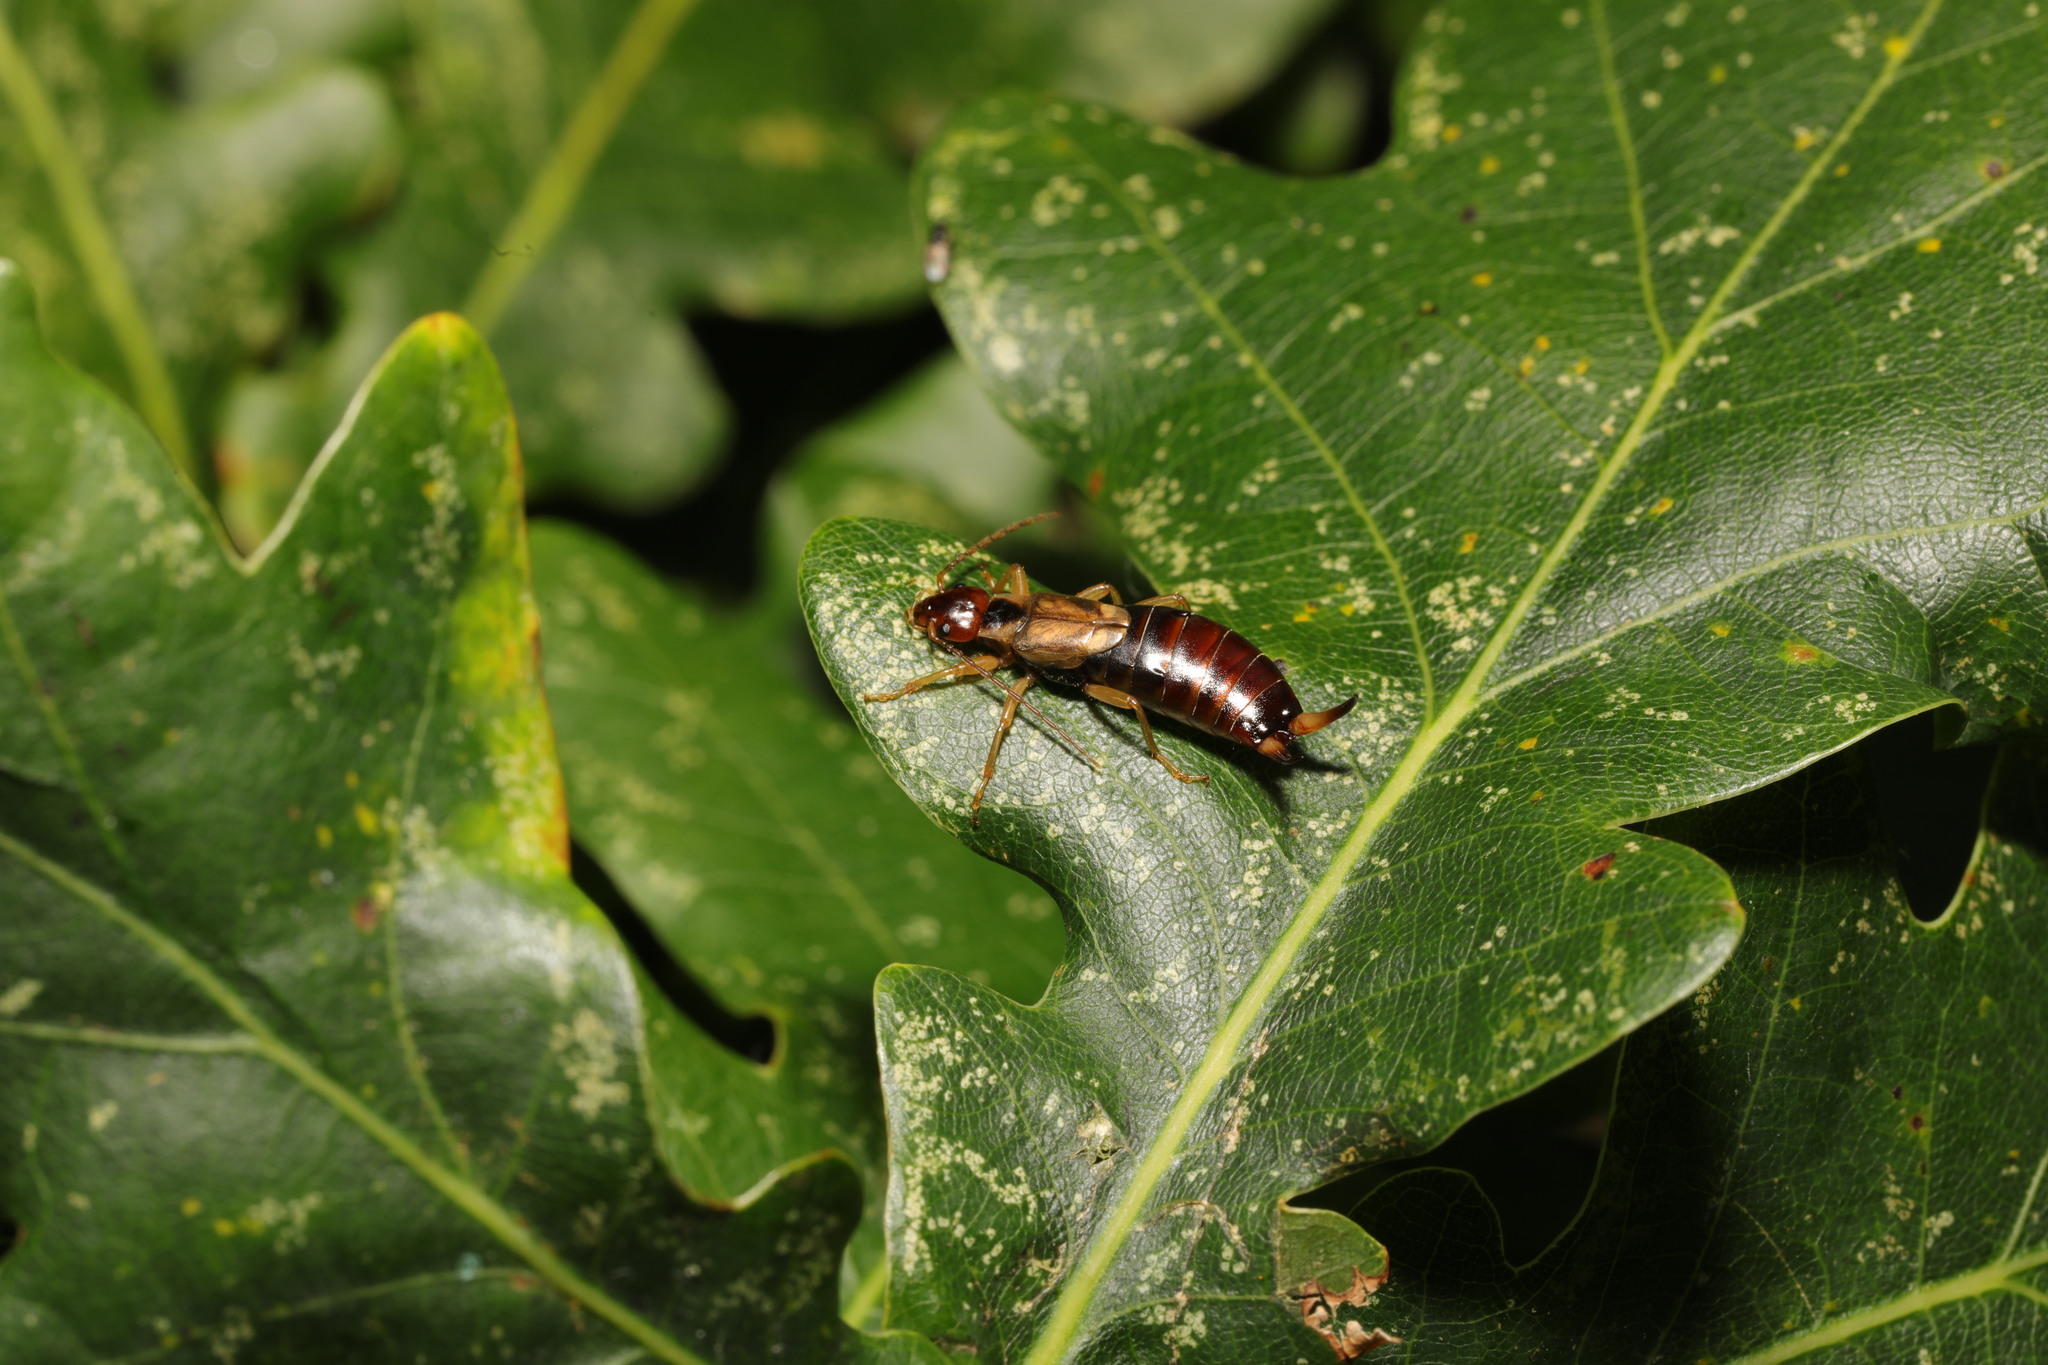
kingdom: Animalia
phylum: Arthropoda
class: Insecta
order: Dermaptera
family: Forficulidae
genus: Forficula
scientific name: Forficula
